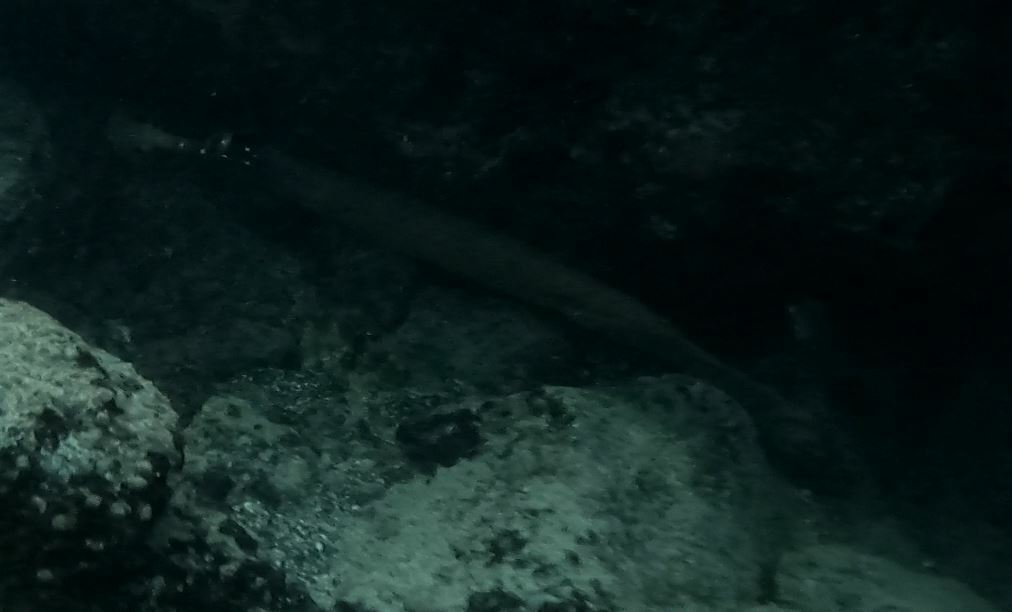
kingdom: Animalia
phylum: Chordata
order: Syngnathiformes
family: Aulostomidae
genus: Aulostomus
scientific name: Aulostomus chinensis
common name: Chinese trumpetfish
